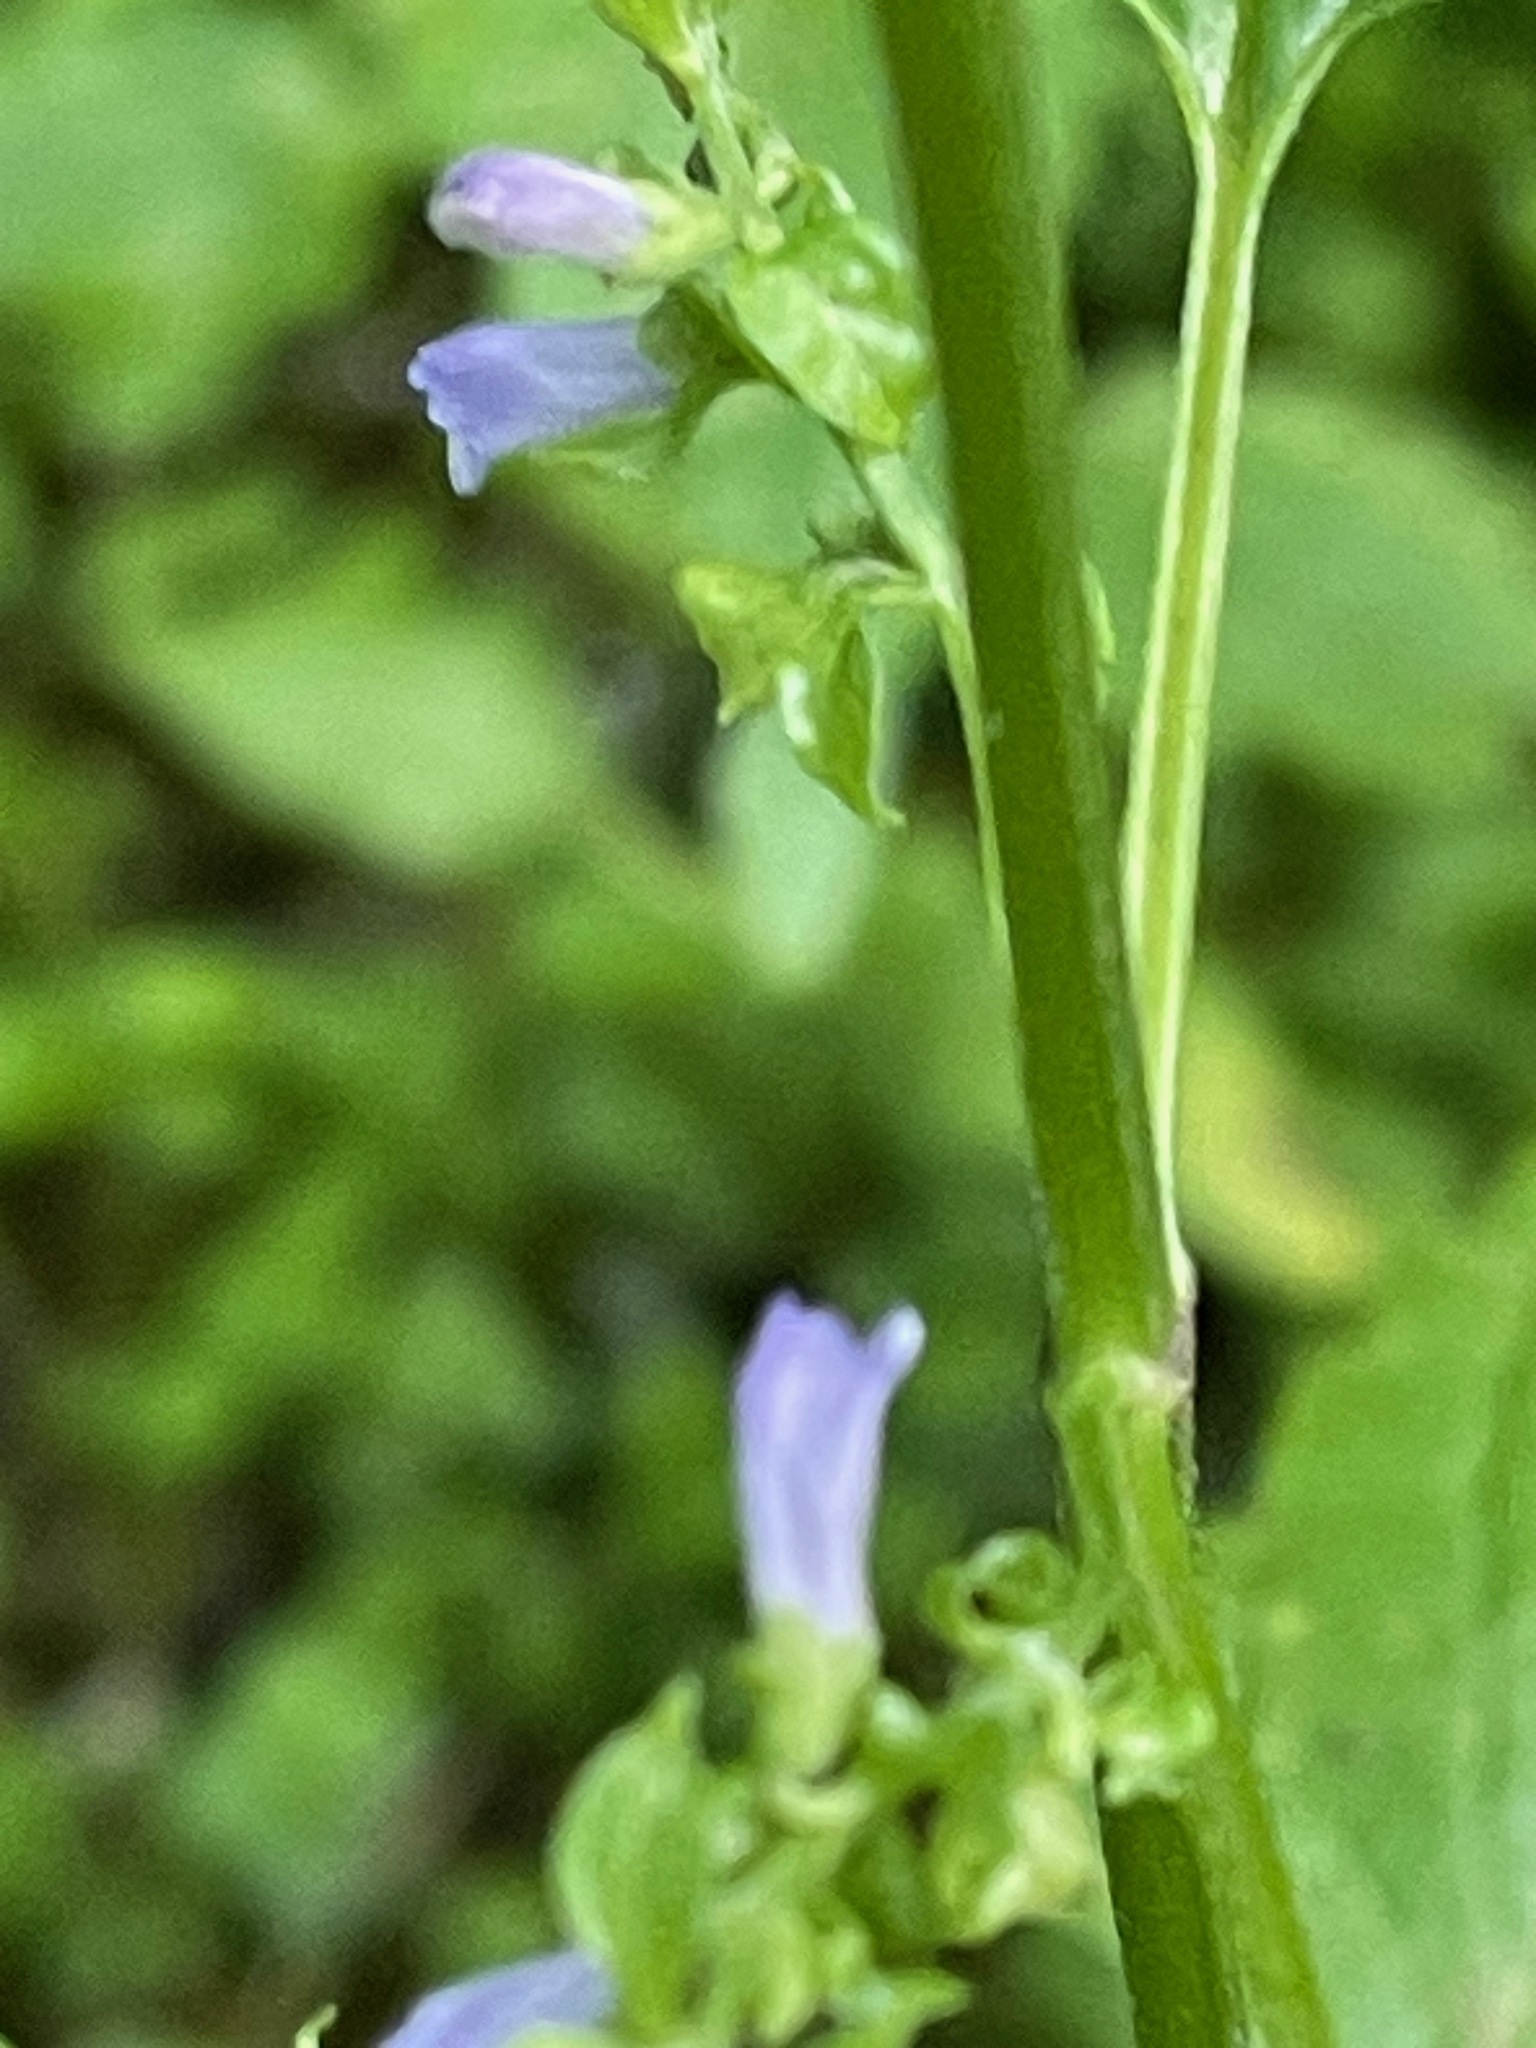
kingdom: Plantae
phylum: Tracheophyta
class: Magnoliopsida
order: Lamiales
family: Lamiaceae
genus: Scutellaria
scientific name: Scutellaria lateriflora
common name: Blue skullcap
